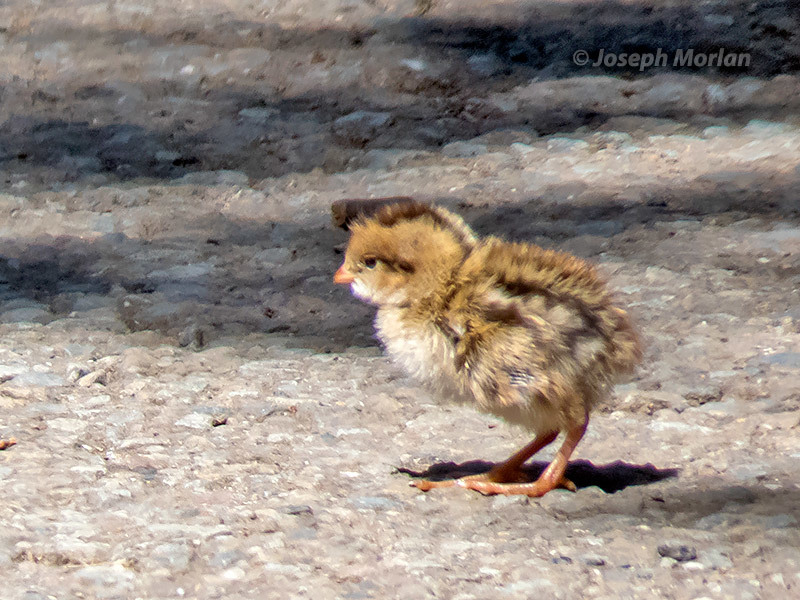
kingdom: Animalia
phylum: Chordata
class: Aves
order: Galliformes
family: Odontophoridae
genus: Callipepla
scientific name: Callipepla californica
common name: California quail
